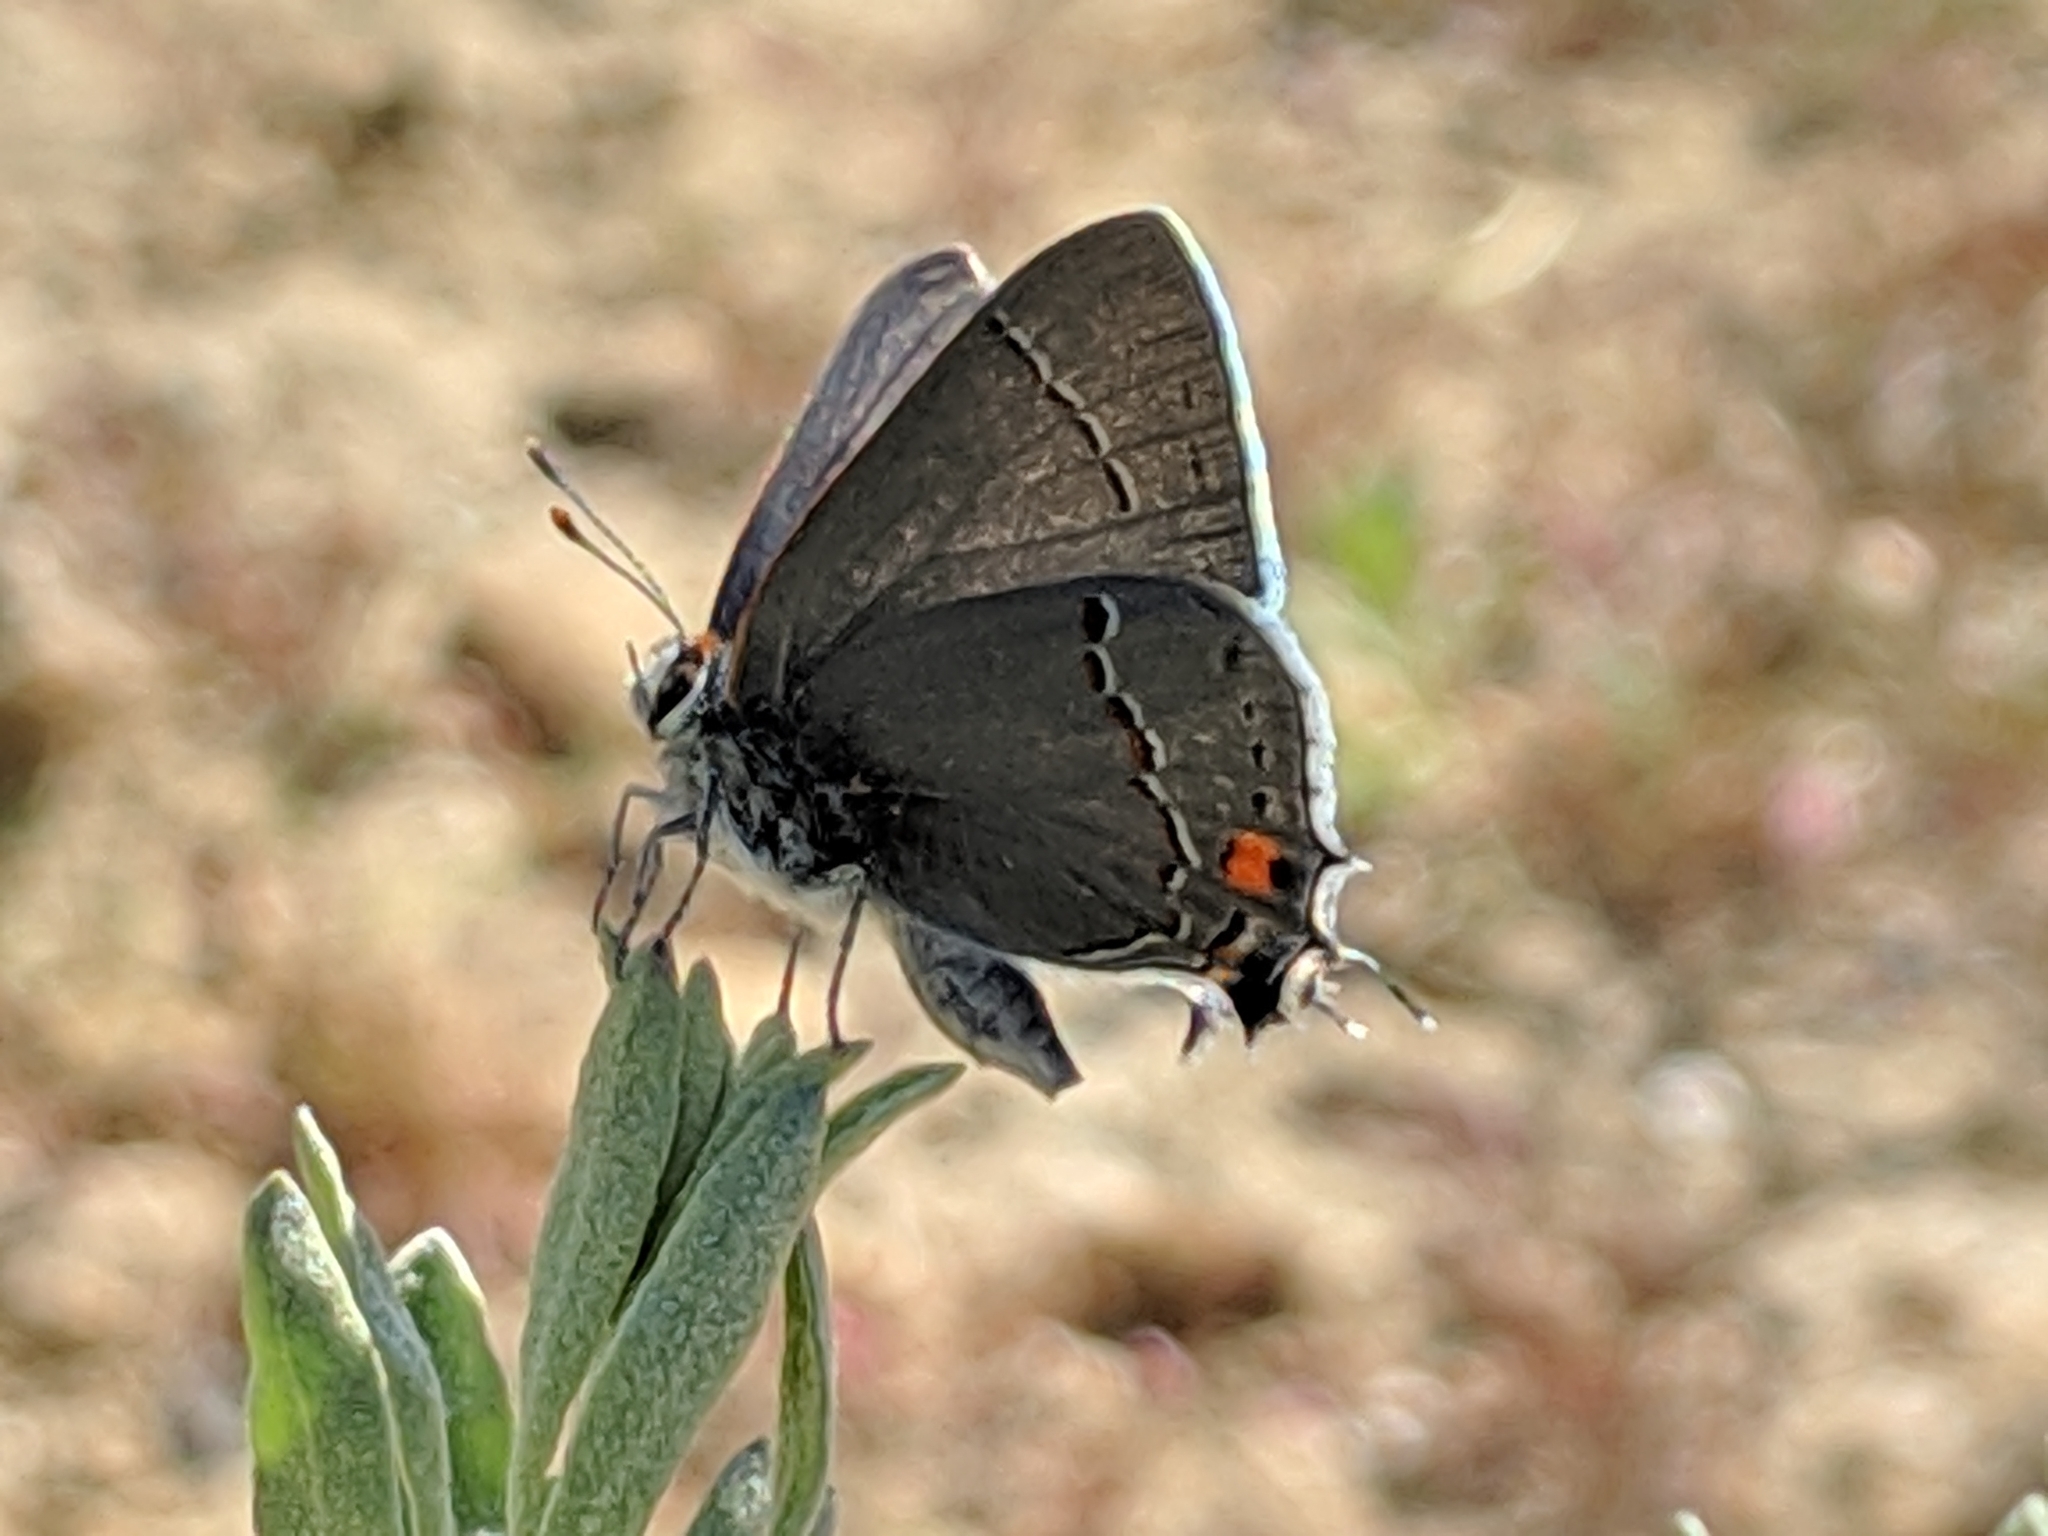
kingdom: Animalia
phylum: Arthropoda
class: Insecta
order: Lepidoptera
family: Lycaenidae
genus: Strymon
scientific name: Strymon melinus
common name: Gray hairstreak
